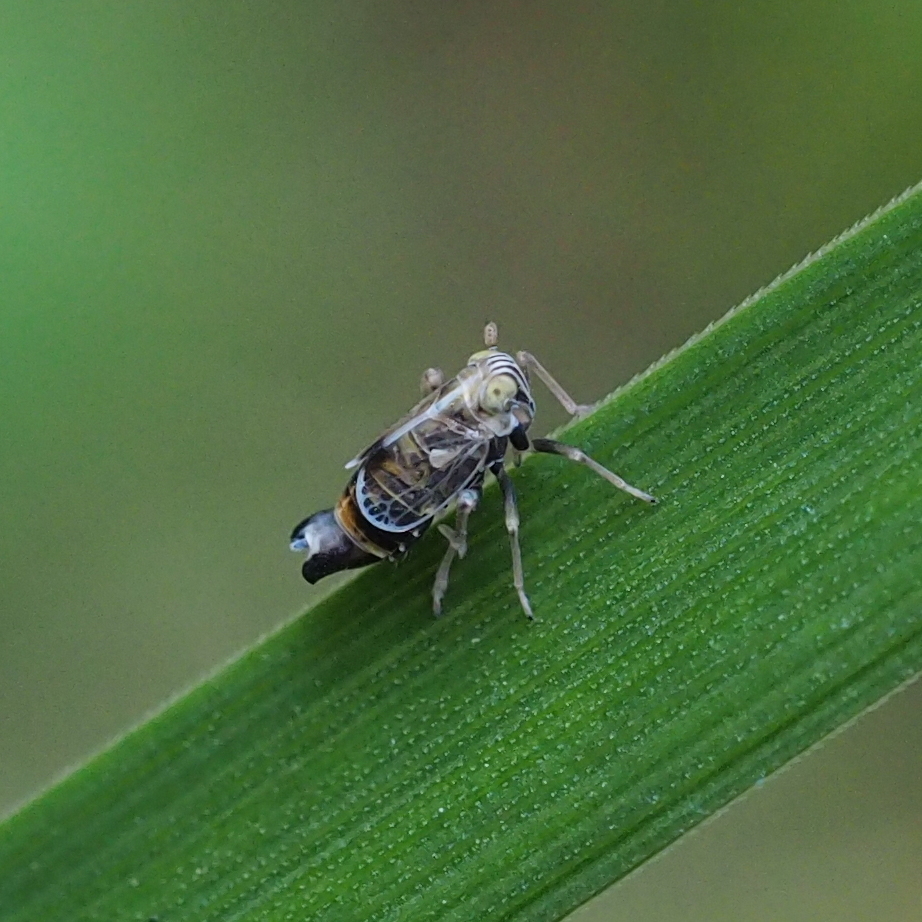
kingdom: Animalia
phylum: Arthropoda
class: Insecta
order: Hemiptera
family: Delphacidae
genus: Dicranotropis
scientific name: Dicranotropis hamata
